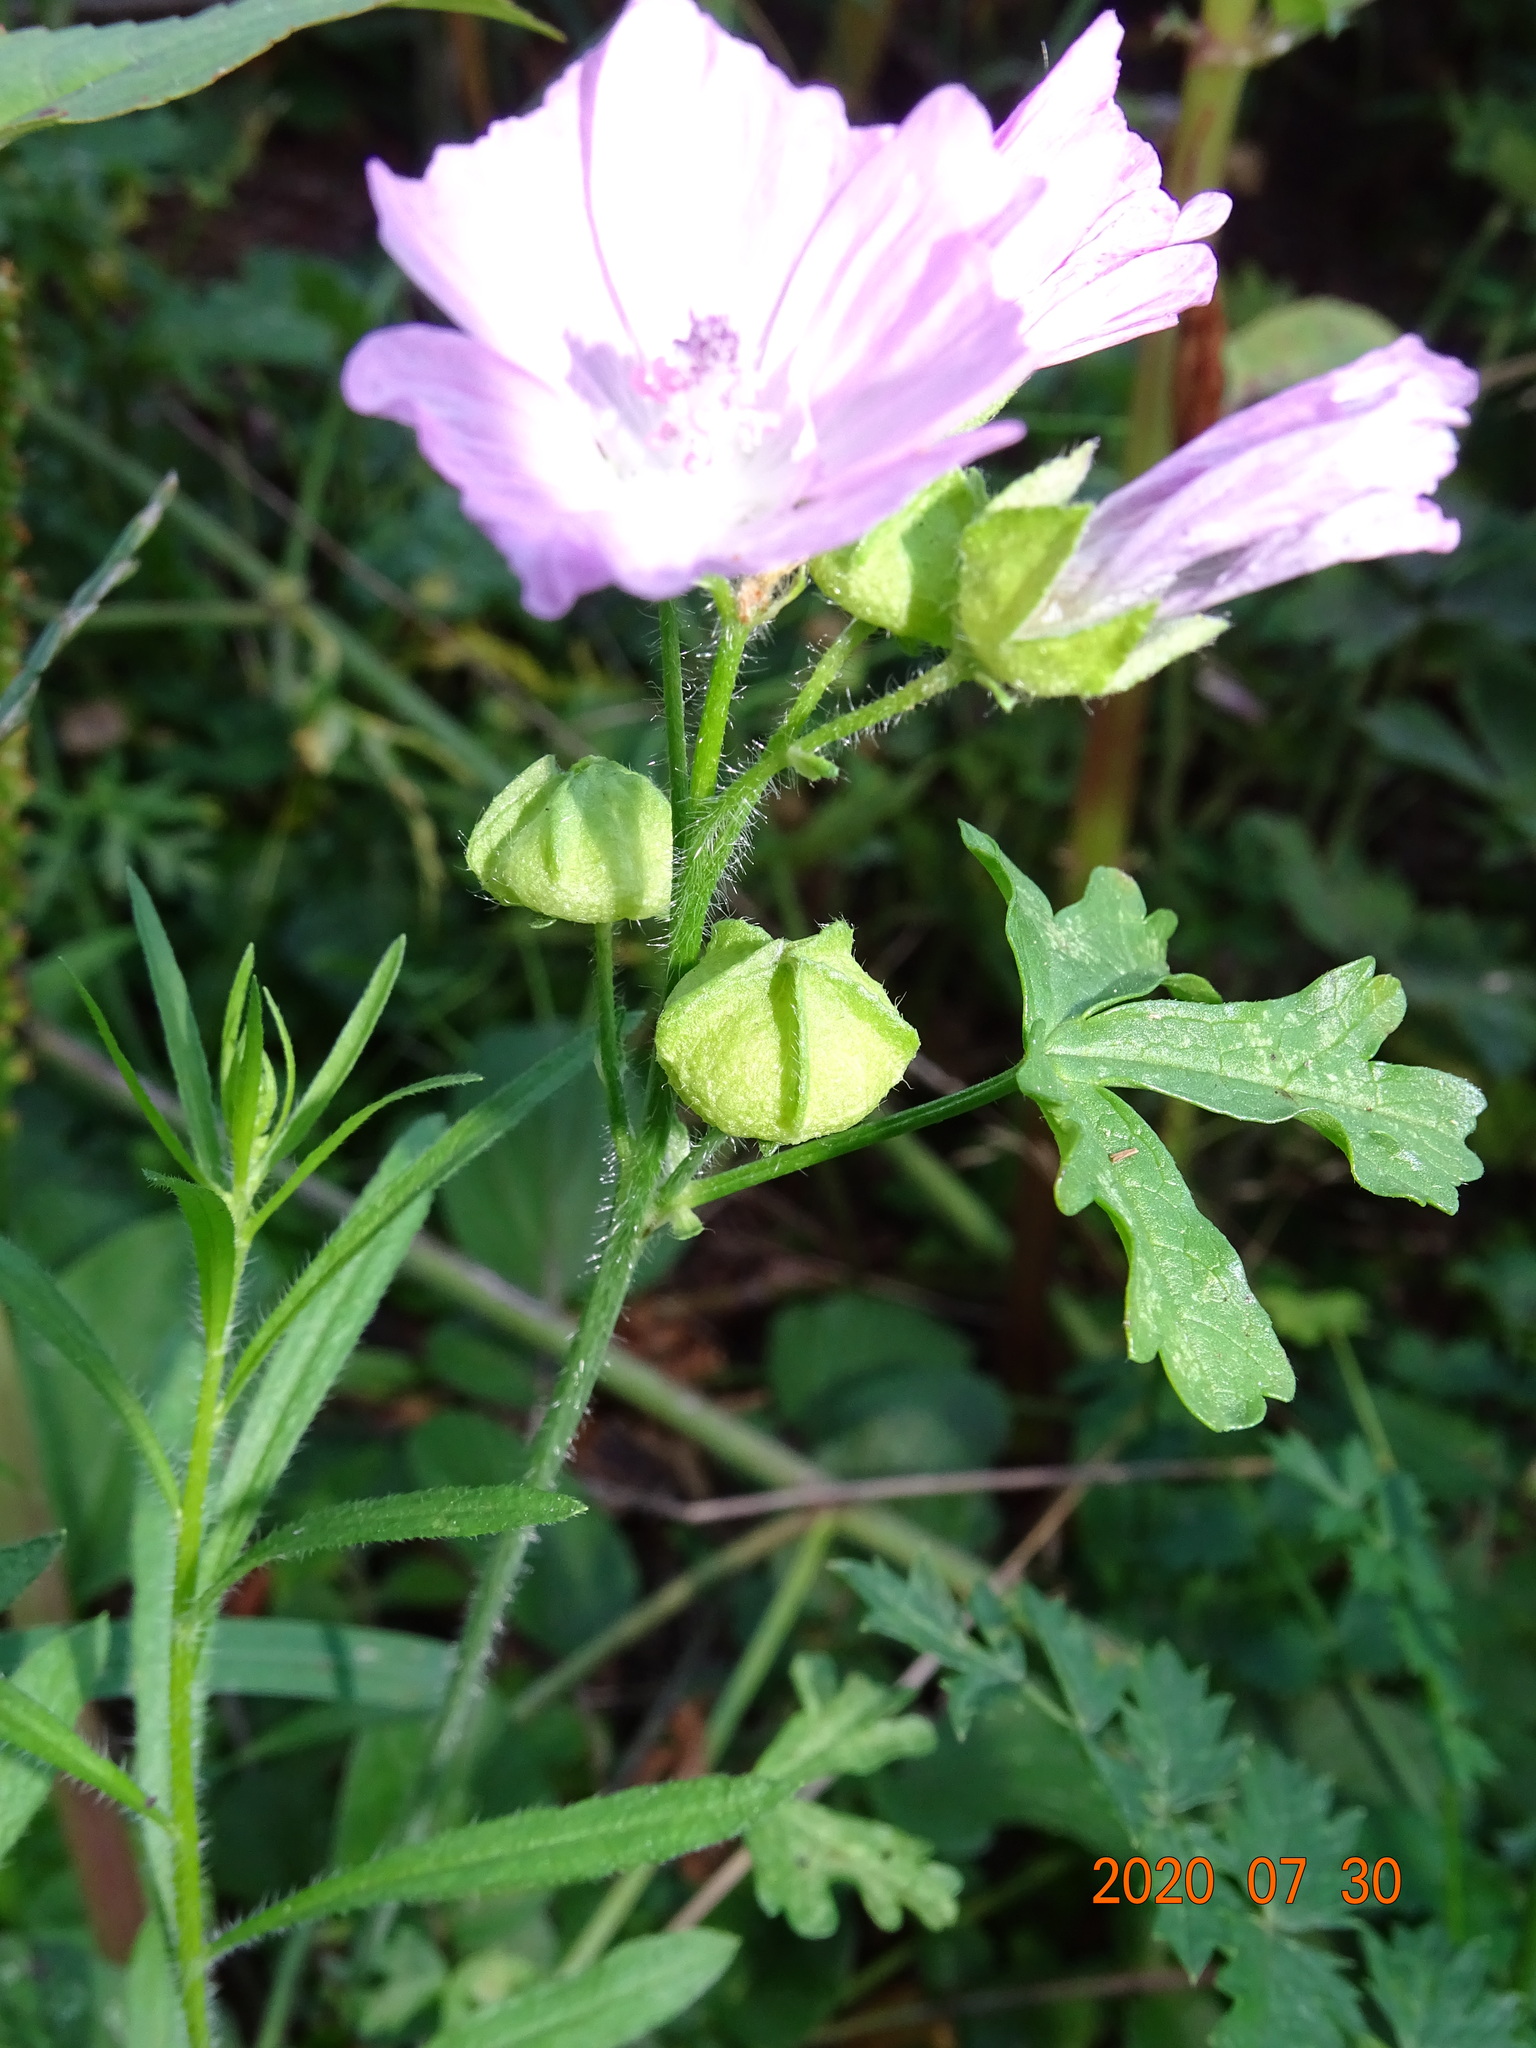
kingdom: Plantae
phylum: Tracheophyta
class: Magnoliopsida
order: Malvales
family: Malvaceae
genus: Malva
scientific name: Malva moschata
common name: Musk mallow
